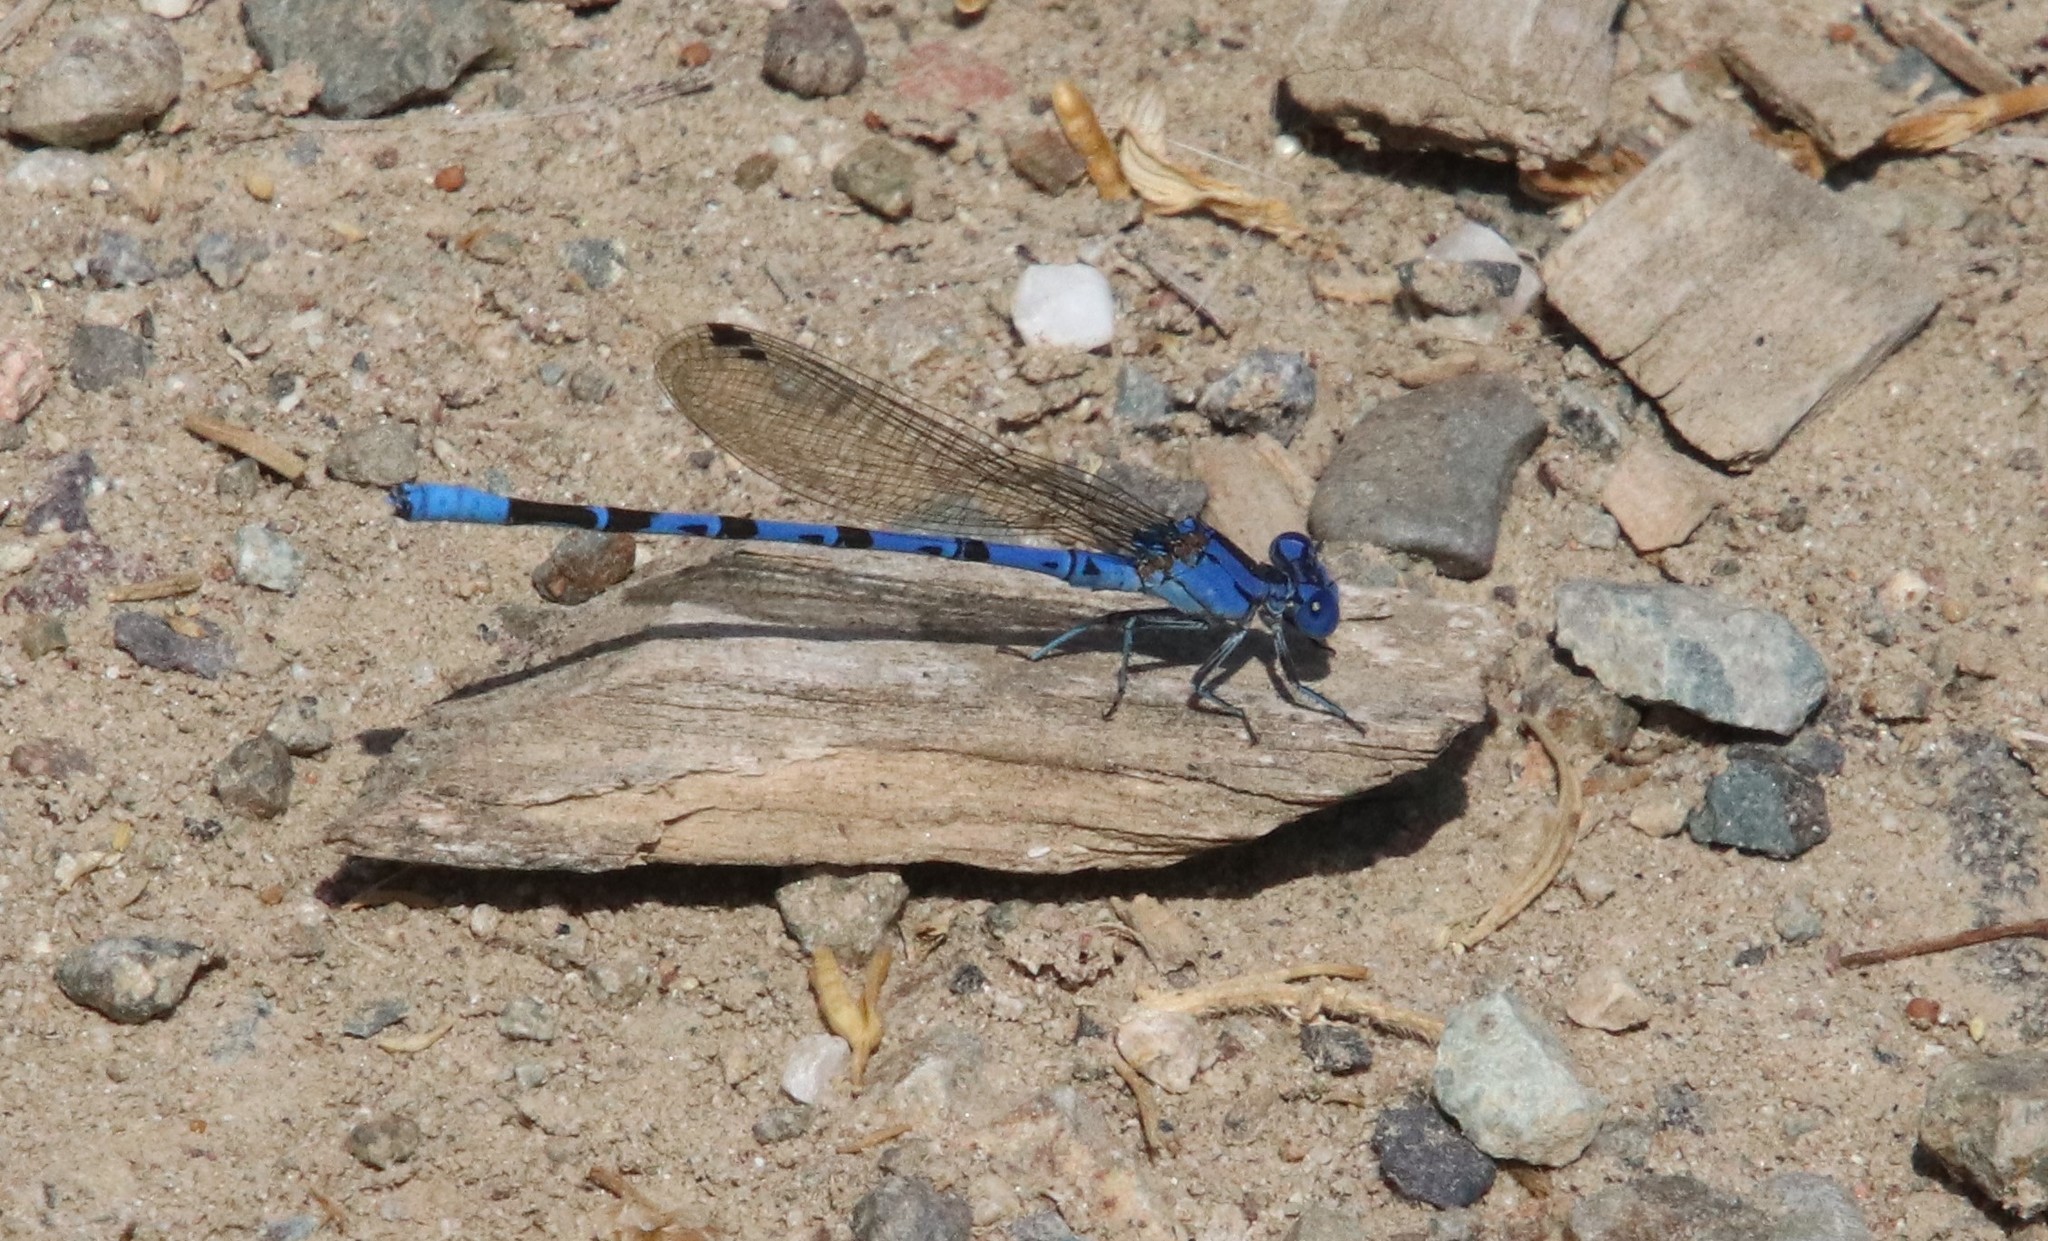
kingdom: Animalia
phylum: Arthropoda
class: Insecta
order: Odonata
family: Coenagrionidae
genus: Argia
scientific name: Argia vivida
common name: Vivid dancer
